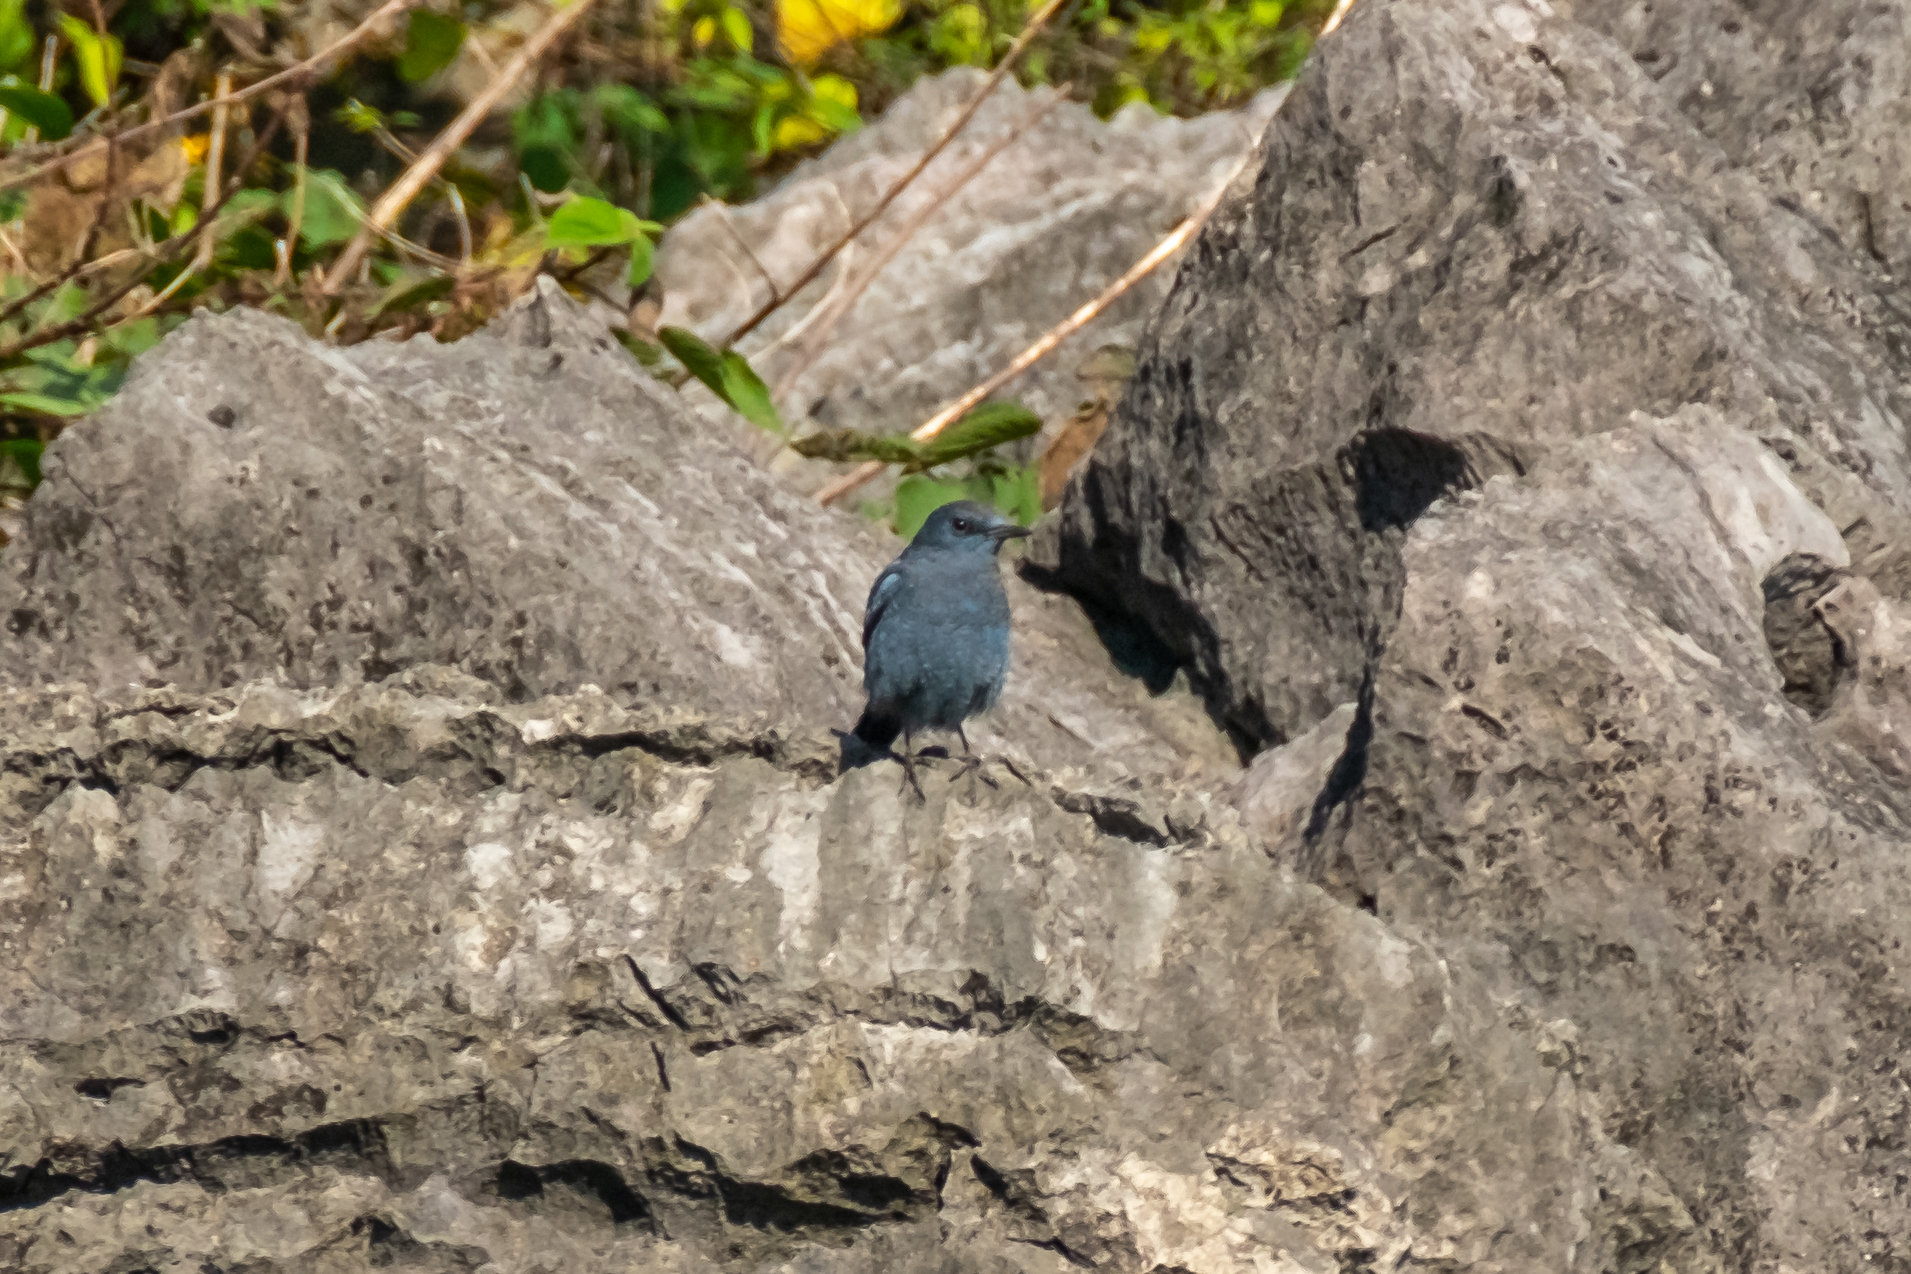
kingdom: Animalia
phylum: Chordata
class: Aves
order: Passeriformes
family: Muscicapidae
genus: Monticola
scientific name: Monticola solitarius
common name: Blue rock thrush
